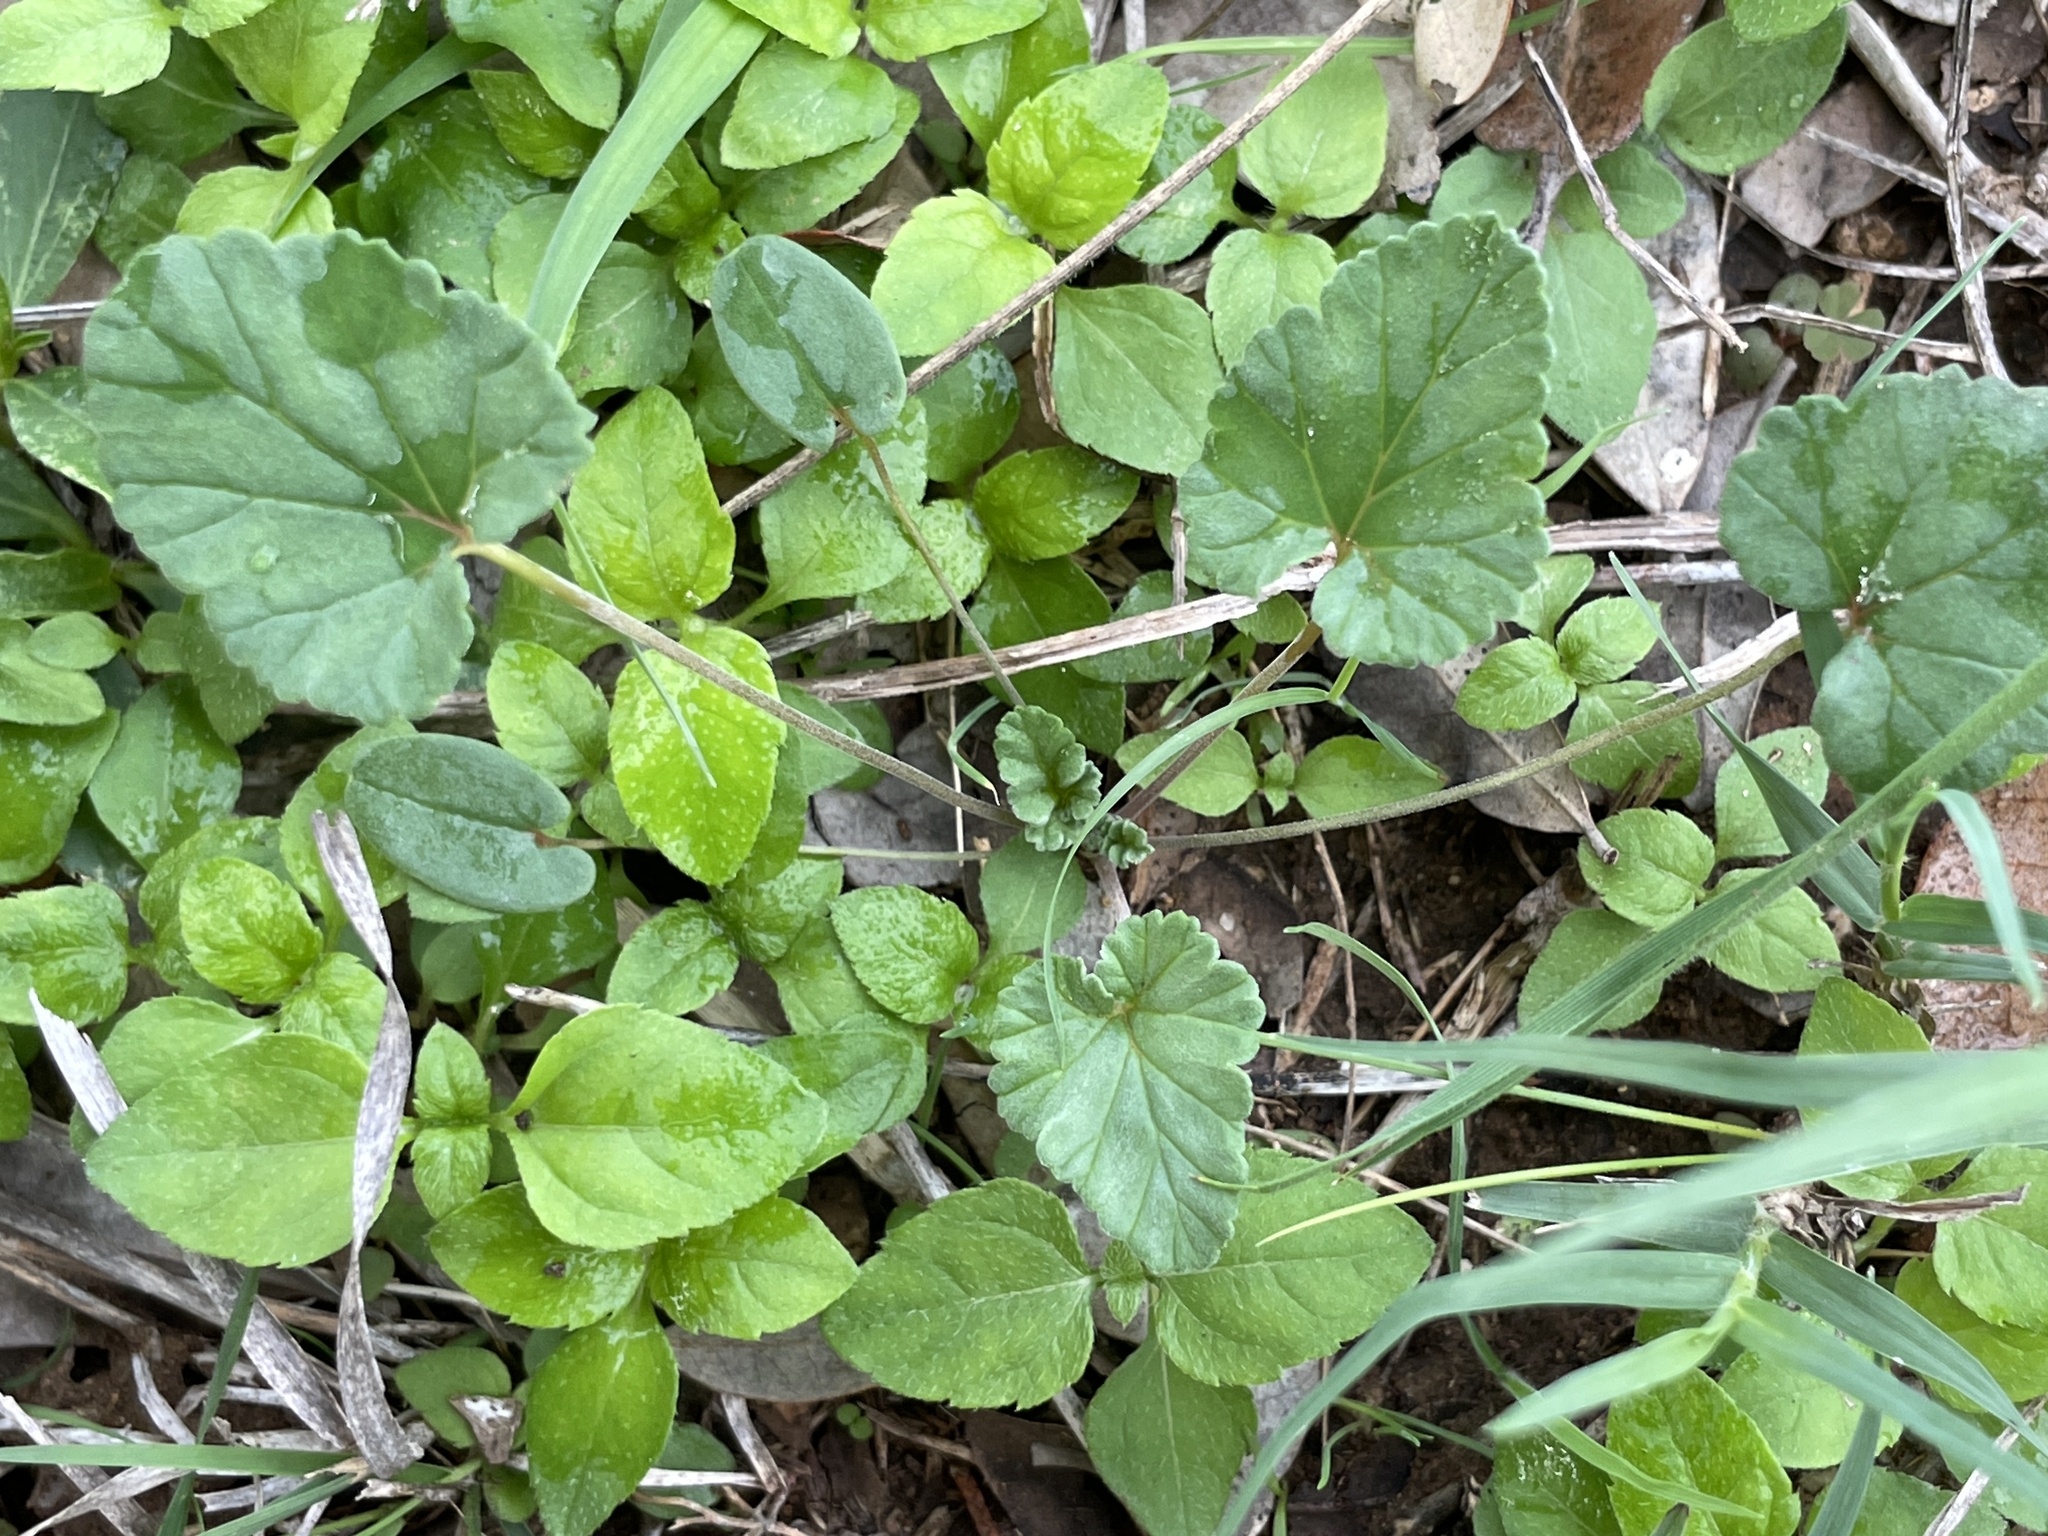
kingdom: Plantae
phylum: Tracheophyta
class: Magnoliopsida
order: Geraniales
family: Geraniaceae
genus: Erodium
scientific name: Erodium texanum
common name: Texas stork's-bill
